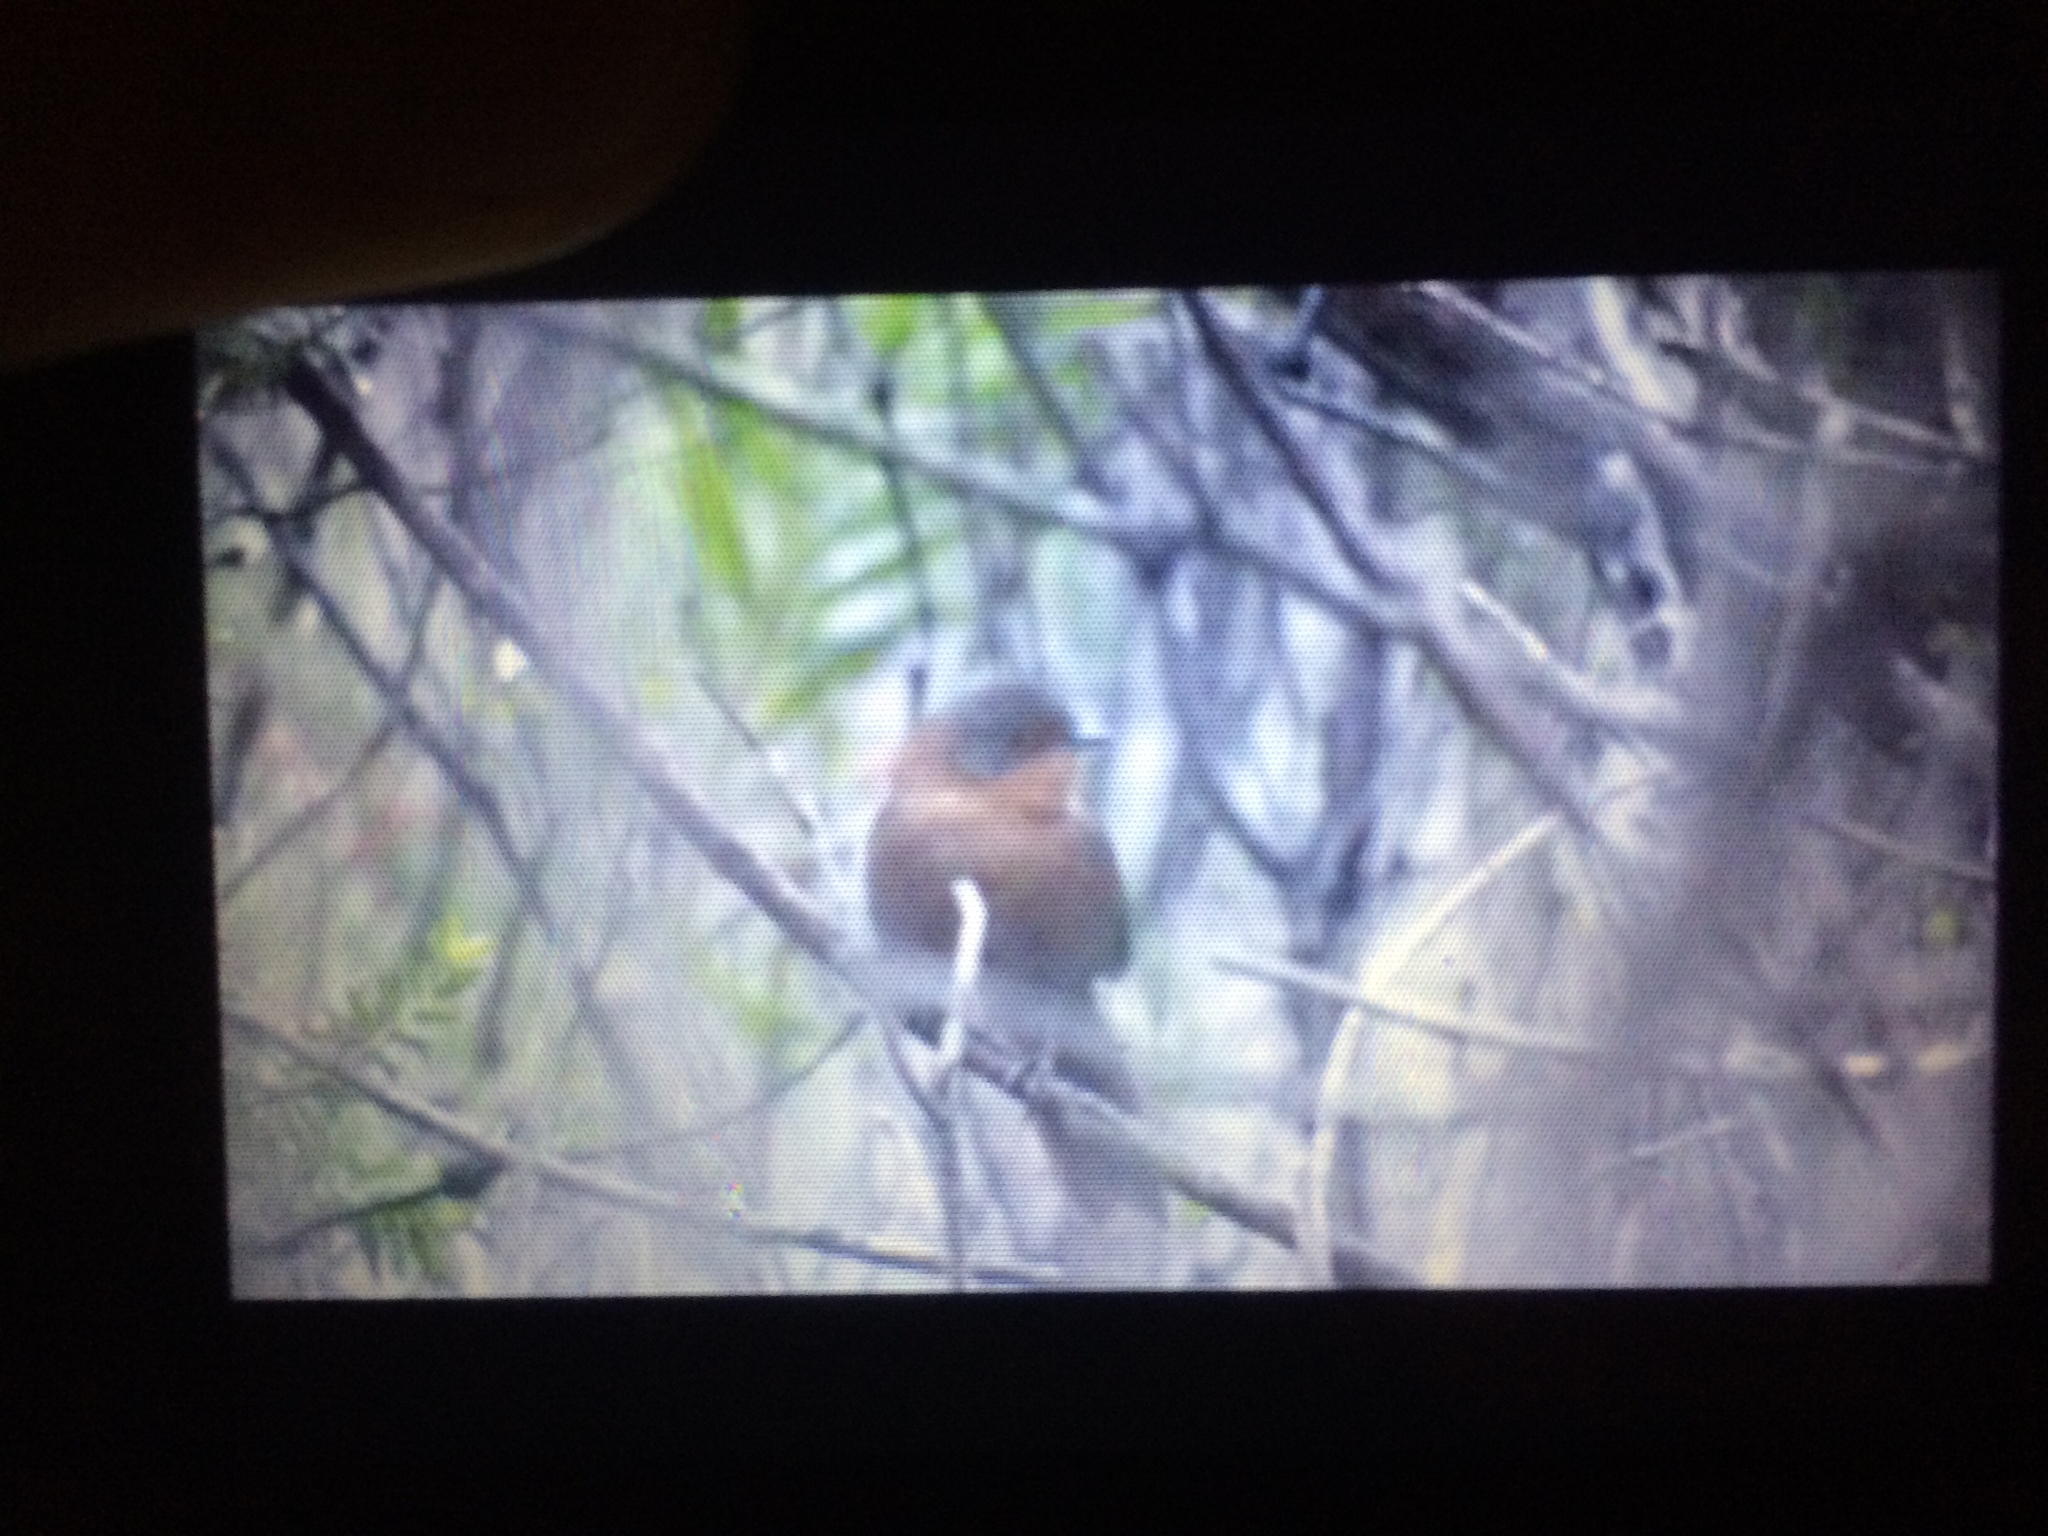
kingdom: Animalia
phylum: Chordata
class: Aves
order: Passeriformes
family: Macrosphenidae
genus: Cryptillas
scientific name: Cryptillas victorini
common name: Victorin's warbler
